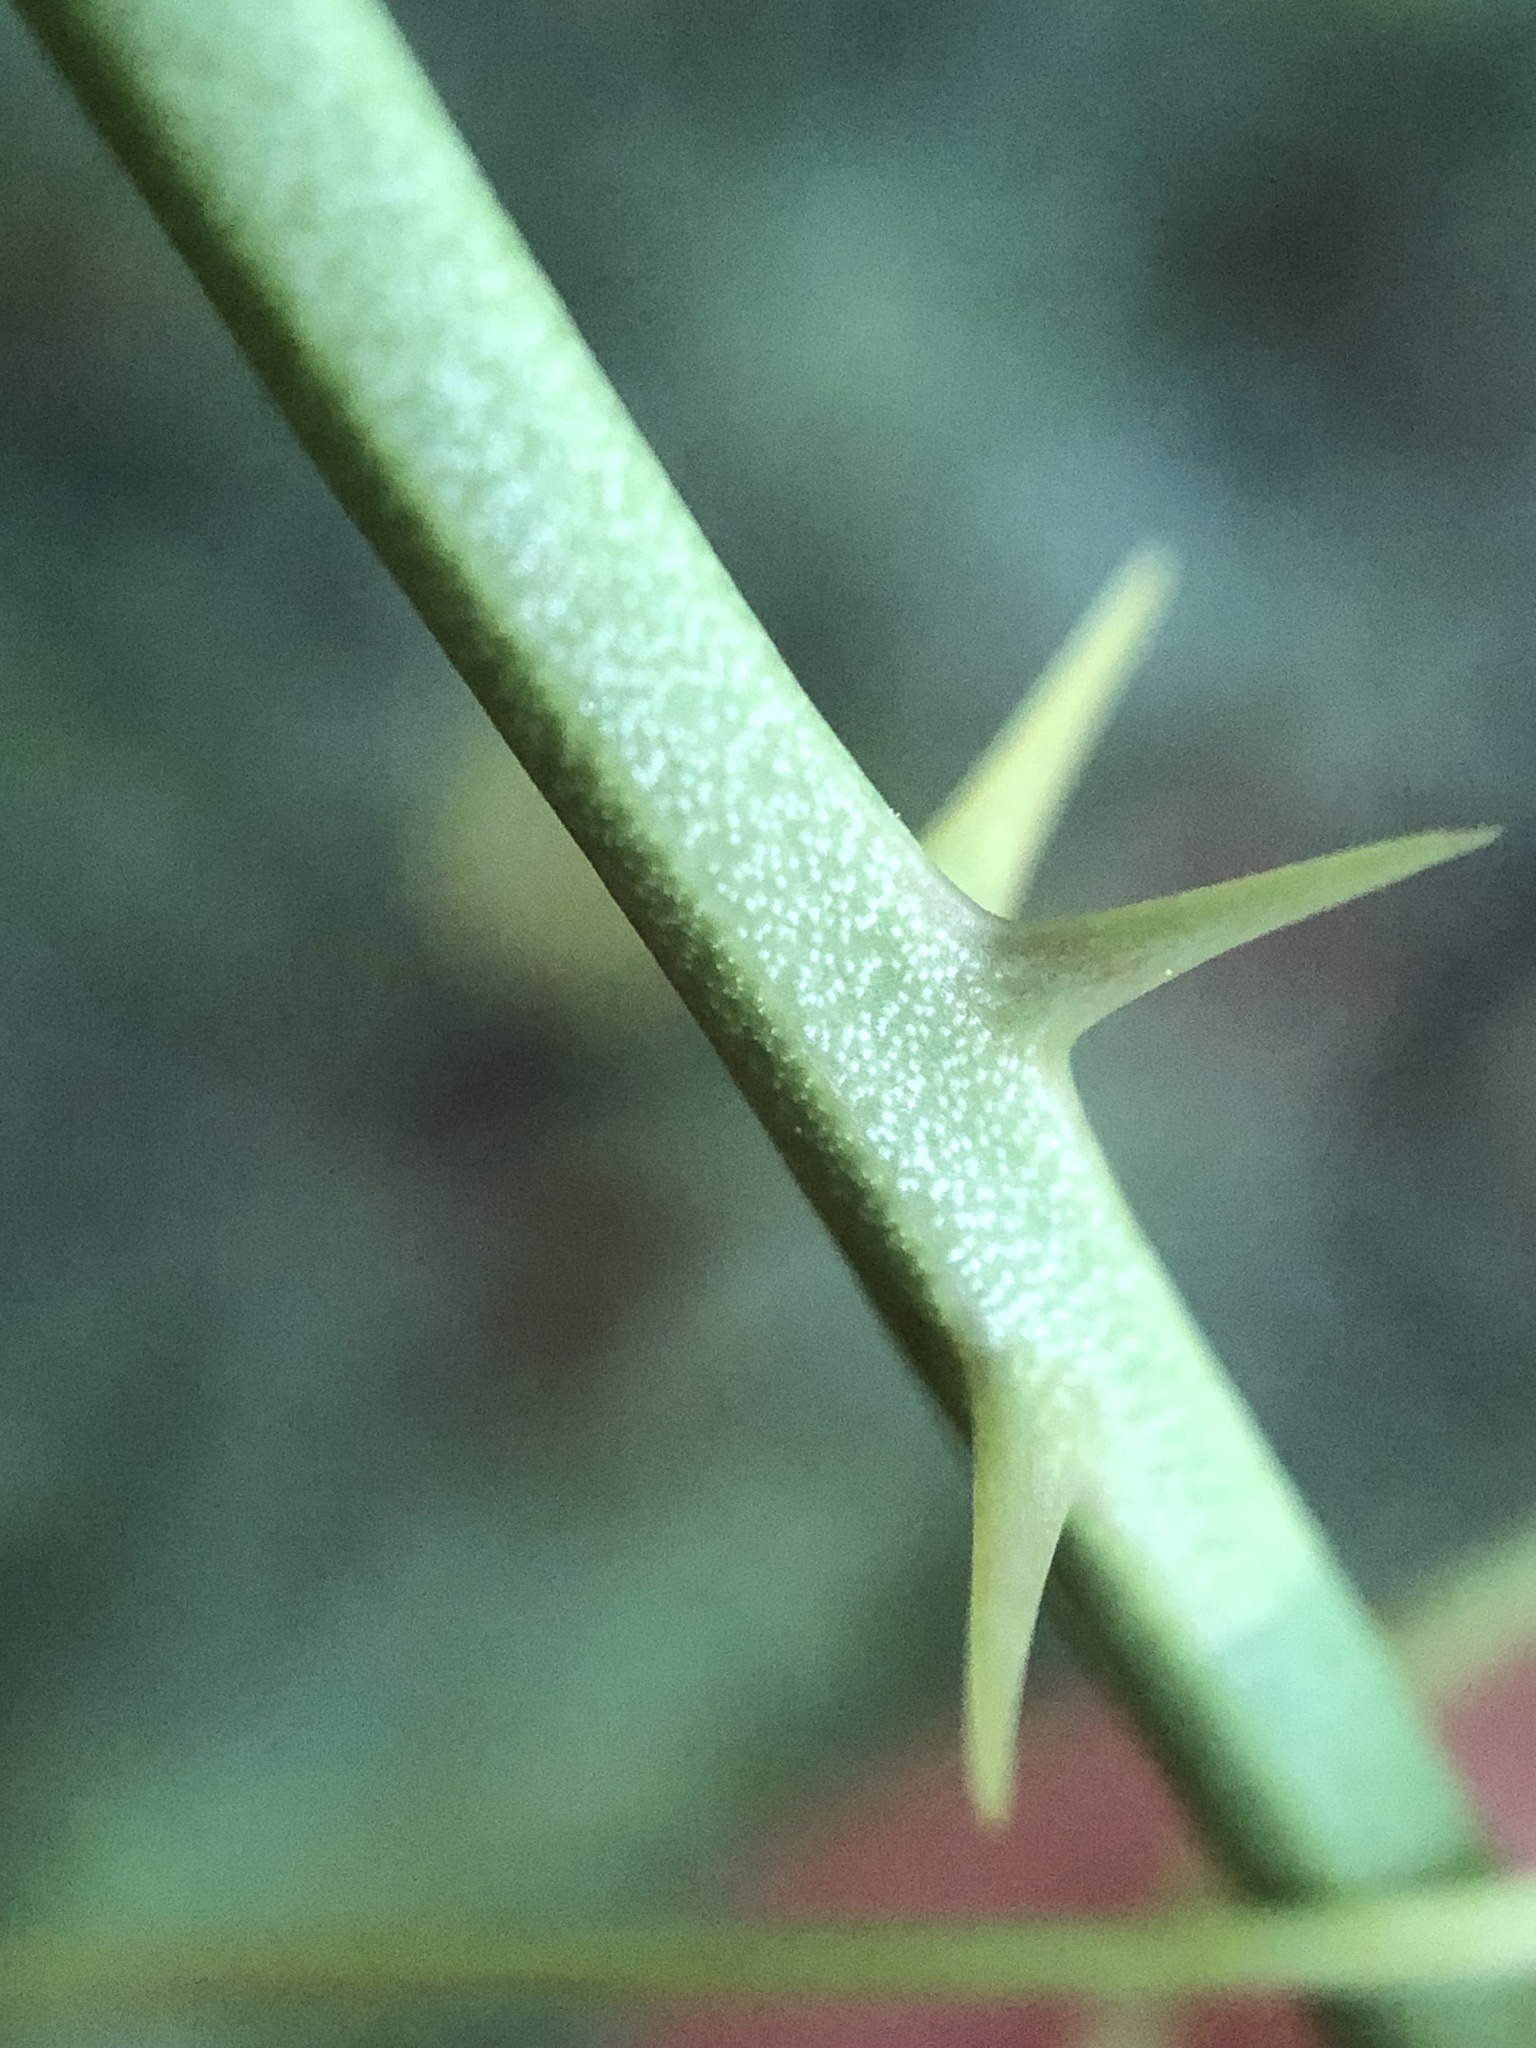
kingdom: Plantae
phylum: Tracheophyta
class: Liliopsida
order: Liliales
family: Smilacaceae
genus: Smilax
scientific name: Smilax rotundifolia
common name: Bullbriar
